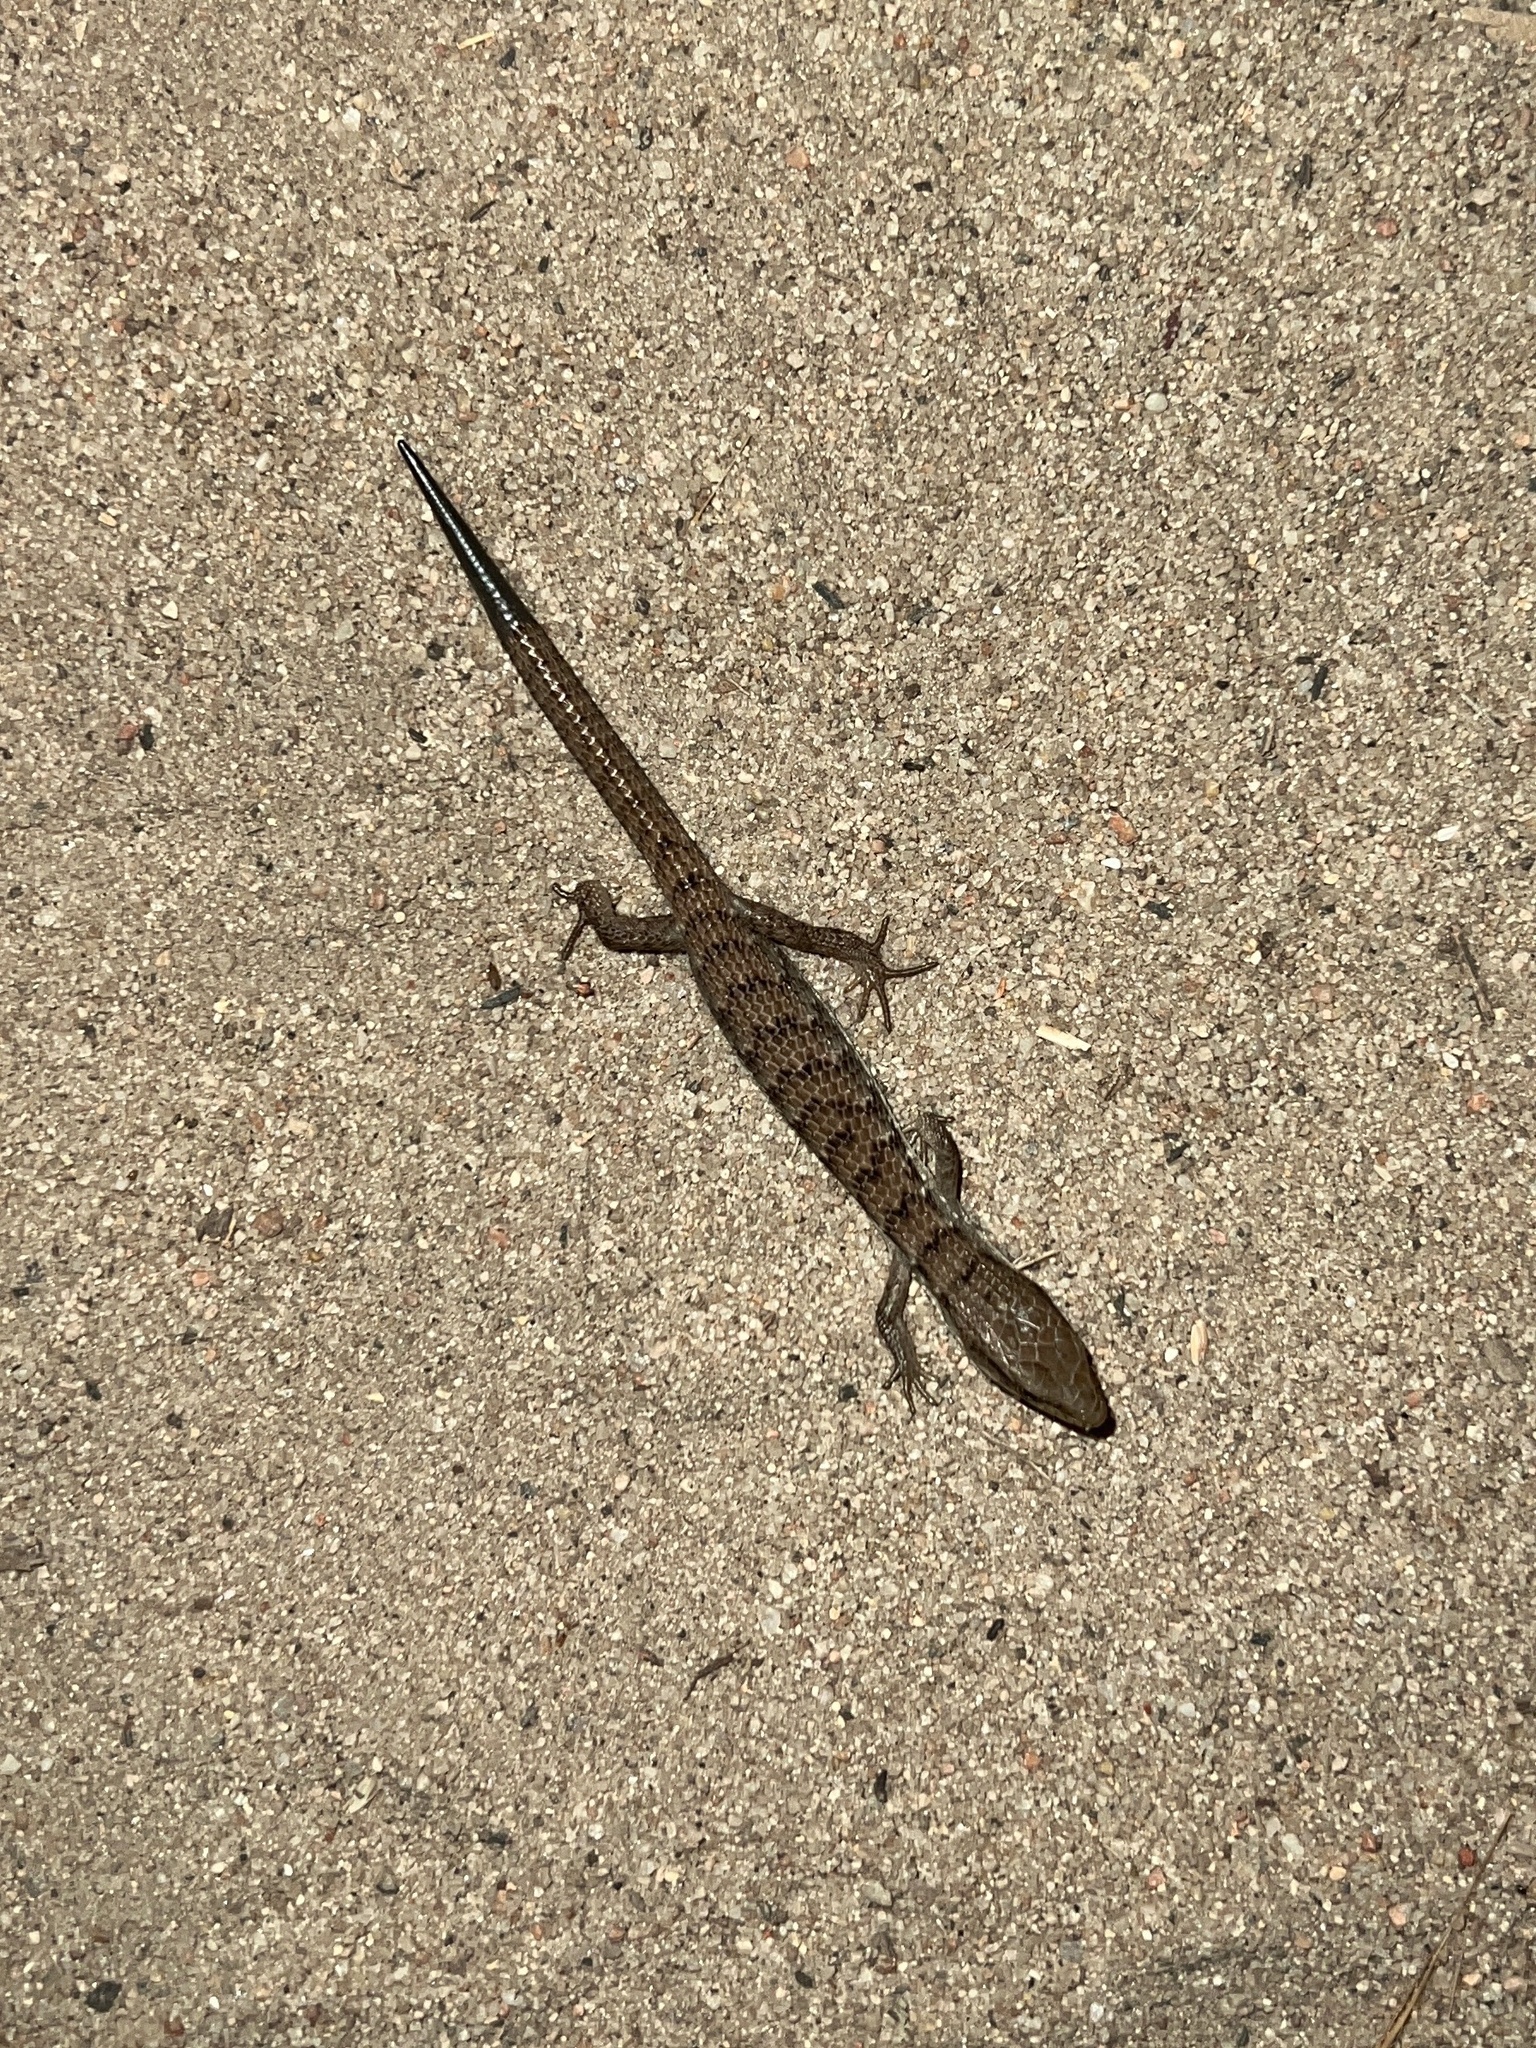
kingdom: Animalia
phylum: Chordata
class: Squamata
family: Anguidae
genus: Elgaria
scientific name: Elgaria multicarinata
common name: Southern alligator lizard
